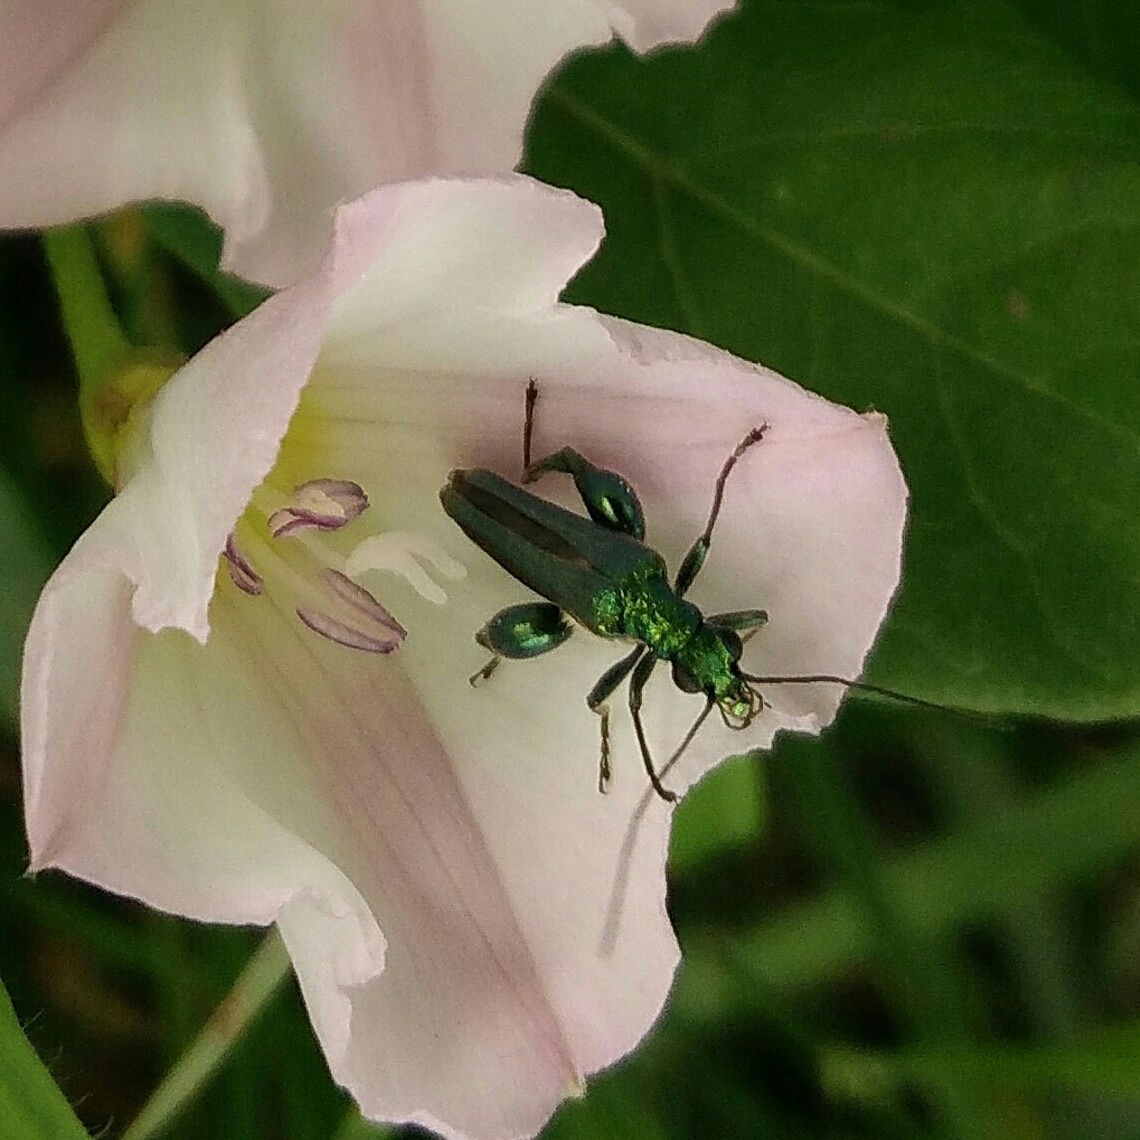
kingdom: Animalia
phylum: Arthropoda
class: Insecta
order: Coleoptera
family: Oedemeridae
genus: Oedemera
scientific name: Oedemera nobilis
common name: Swollen-thighed beetle
